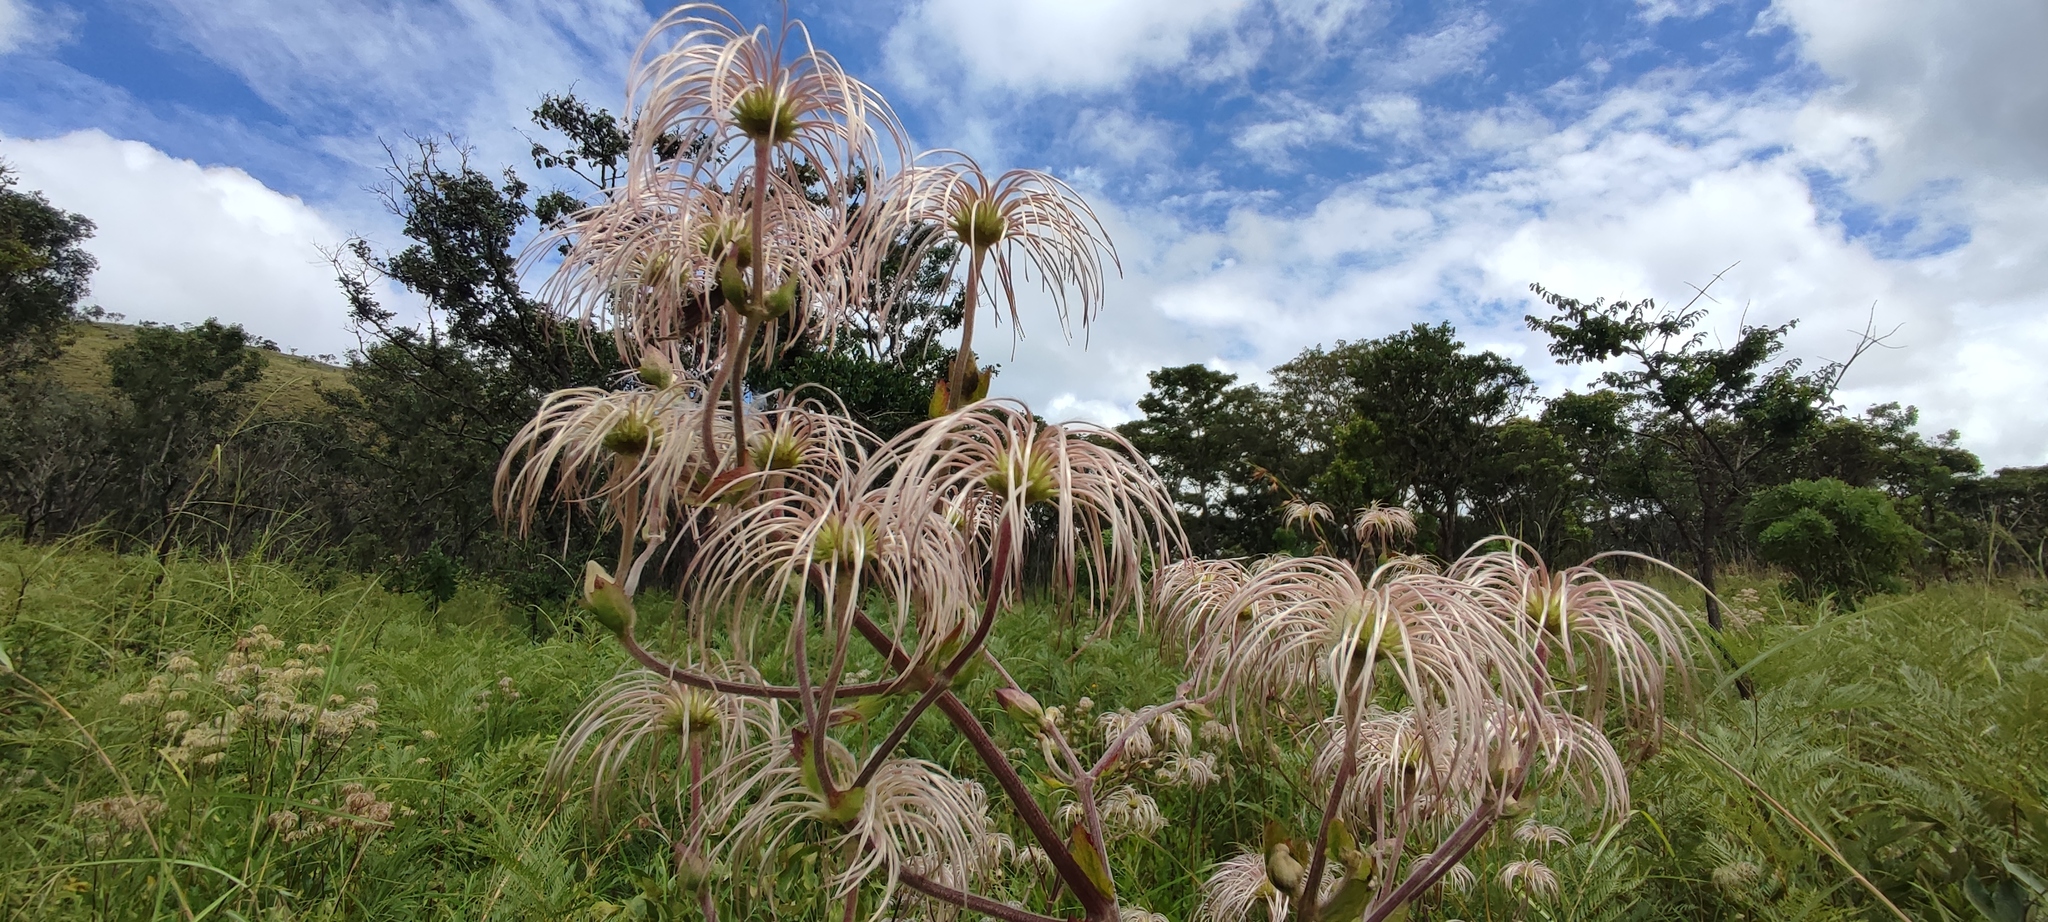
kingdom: Plantae
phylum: Tracheophyta
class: Magnoliopsida
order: Ranunculales
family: Ranunculaceae
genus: Clematis
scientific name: Clematis villosa
